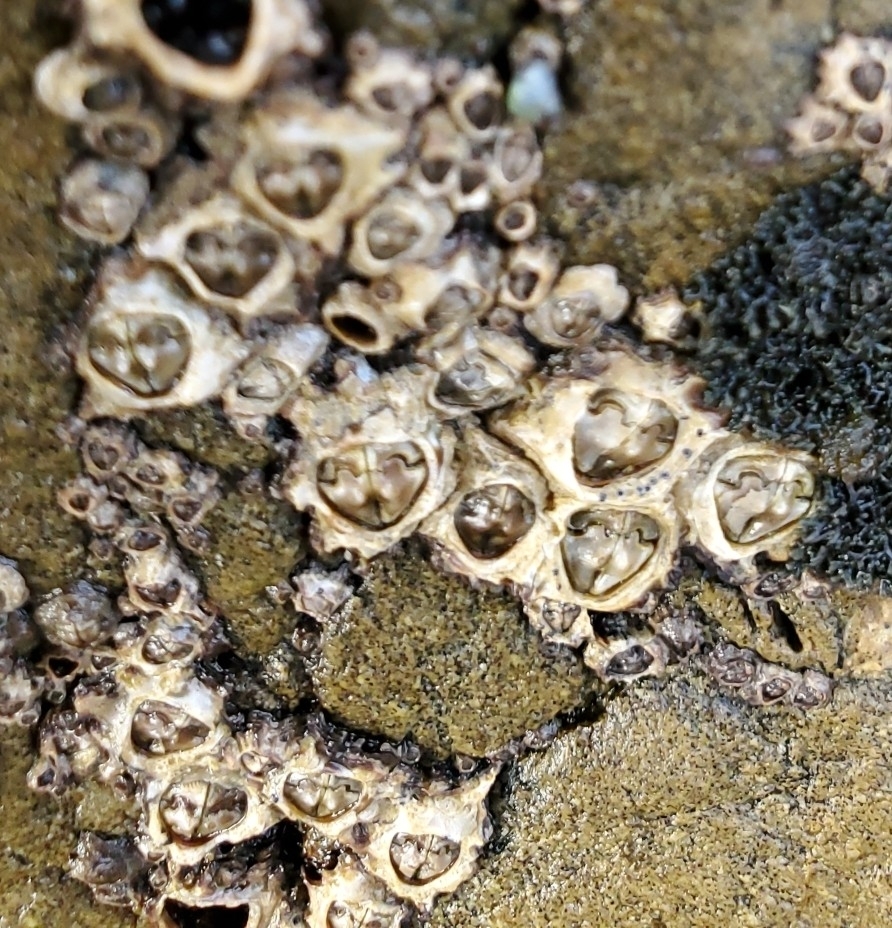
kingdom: Animalia
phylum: Arthropoda
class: Maxillopoda
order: Sessilia
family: Chthamalidae
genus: Chamaesipho
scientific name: Chamaesipho brunnea
